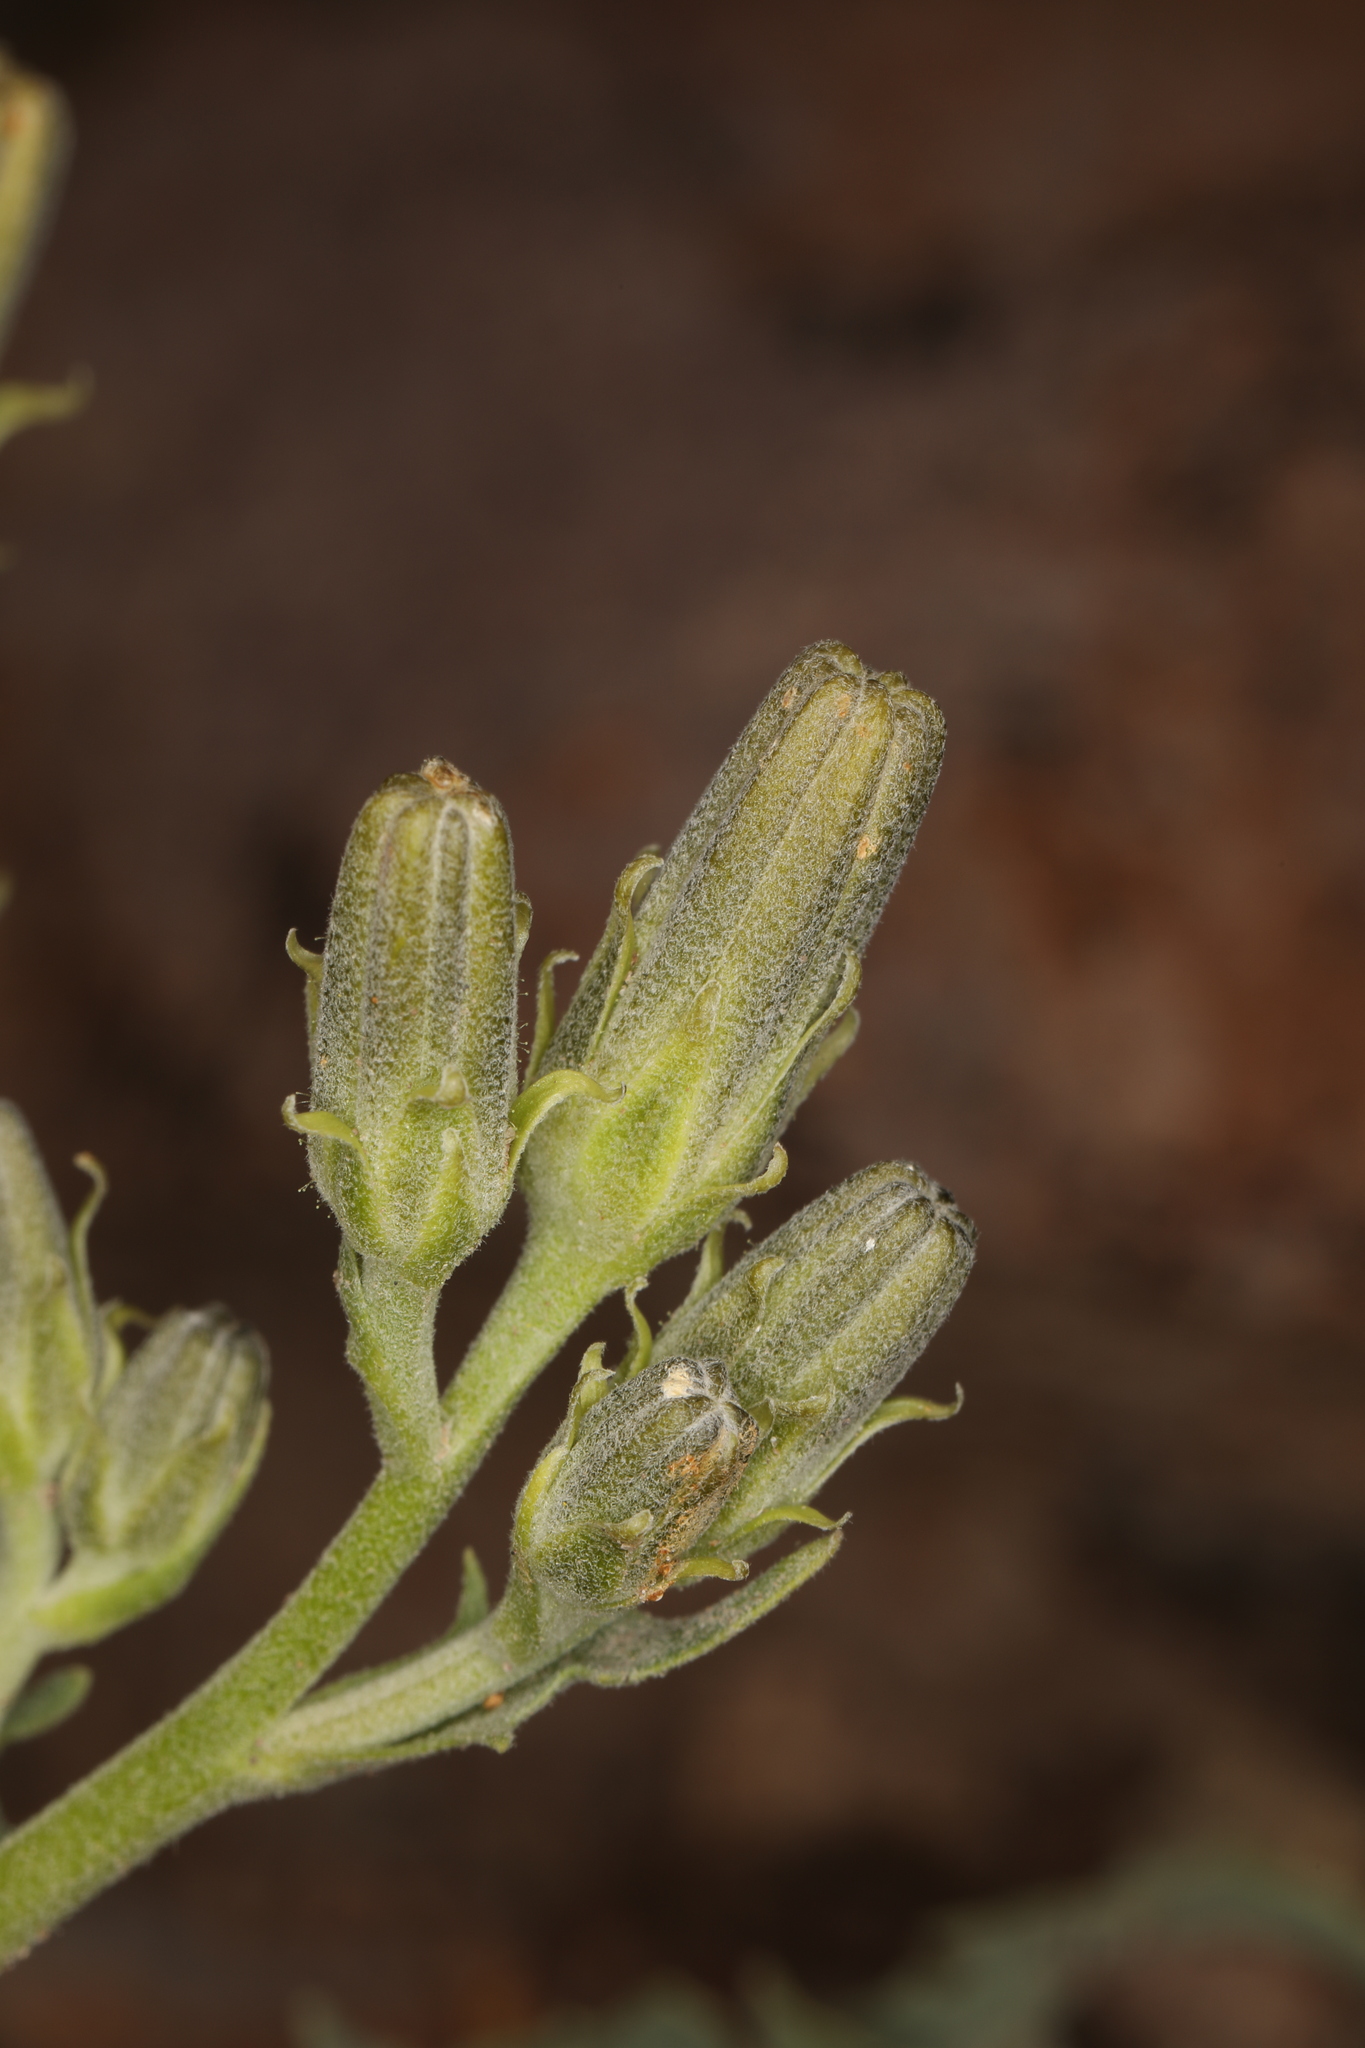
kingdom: Plantae
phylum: Tracheophyta
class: Magnoliopsida
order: Asterales
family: Asteraceae
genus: Crepis
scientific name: Crepis occidentalis
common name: Gray hawk's-beard
